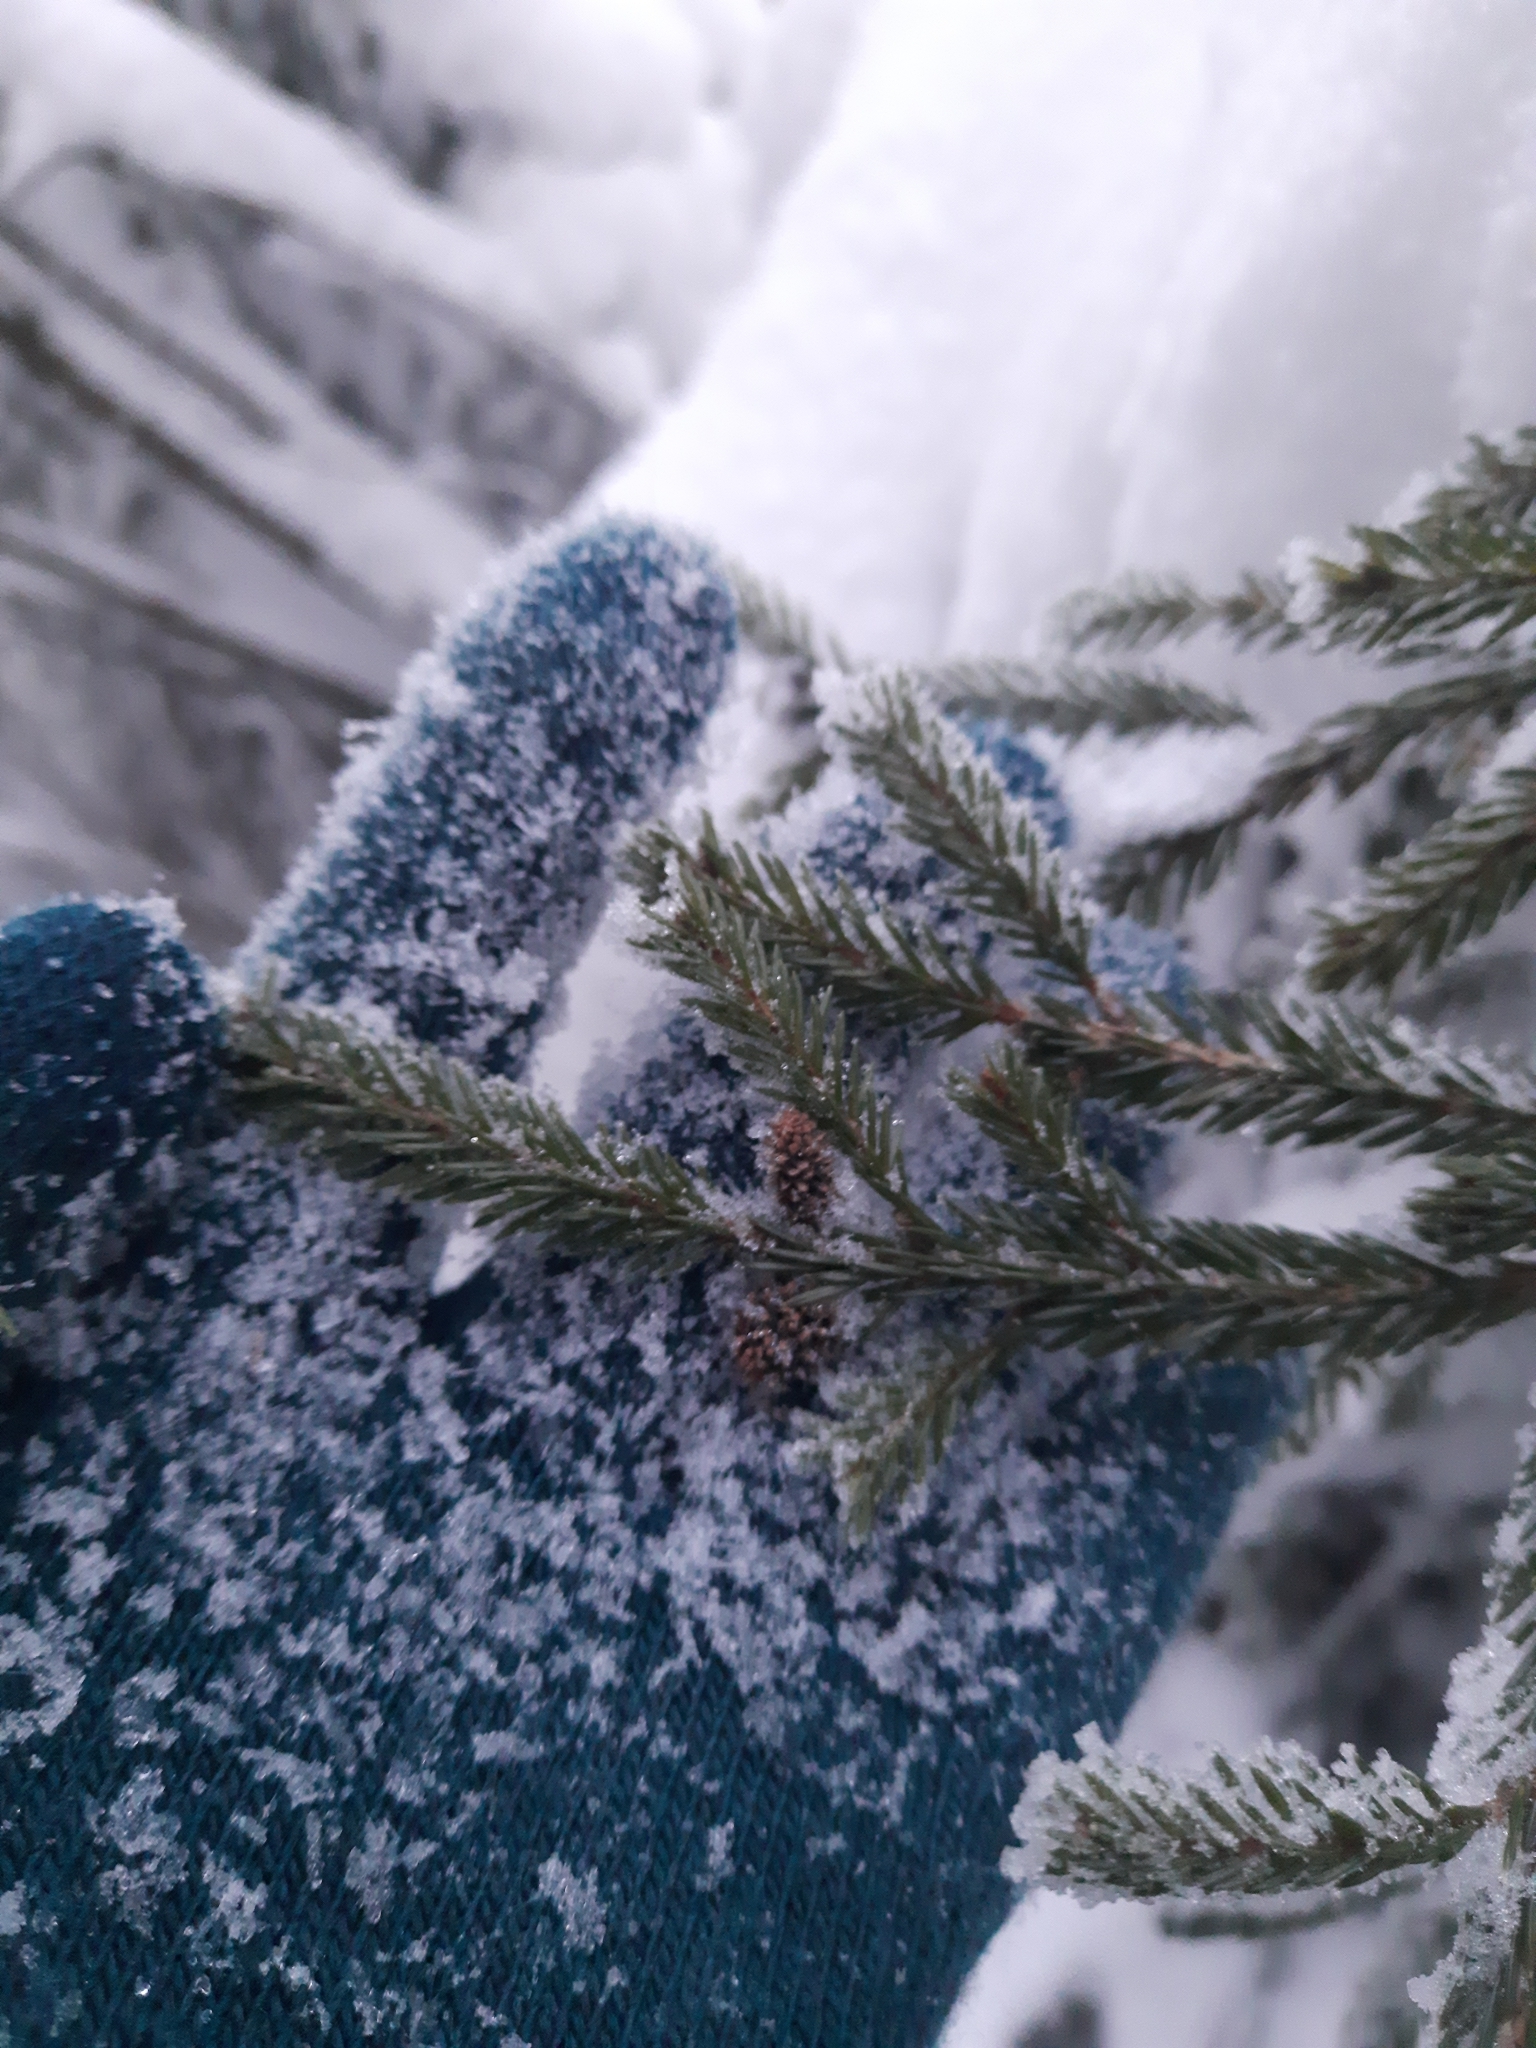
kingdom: Plantae
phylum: Tracheophyta
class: Pinopsida
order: Pinales
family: Pinaceae
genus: Picea
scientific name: Picea obovata
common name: Siberian spruce
